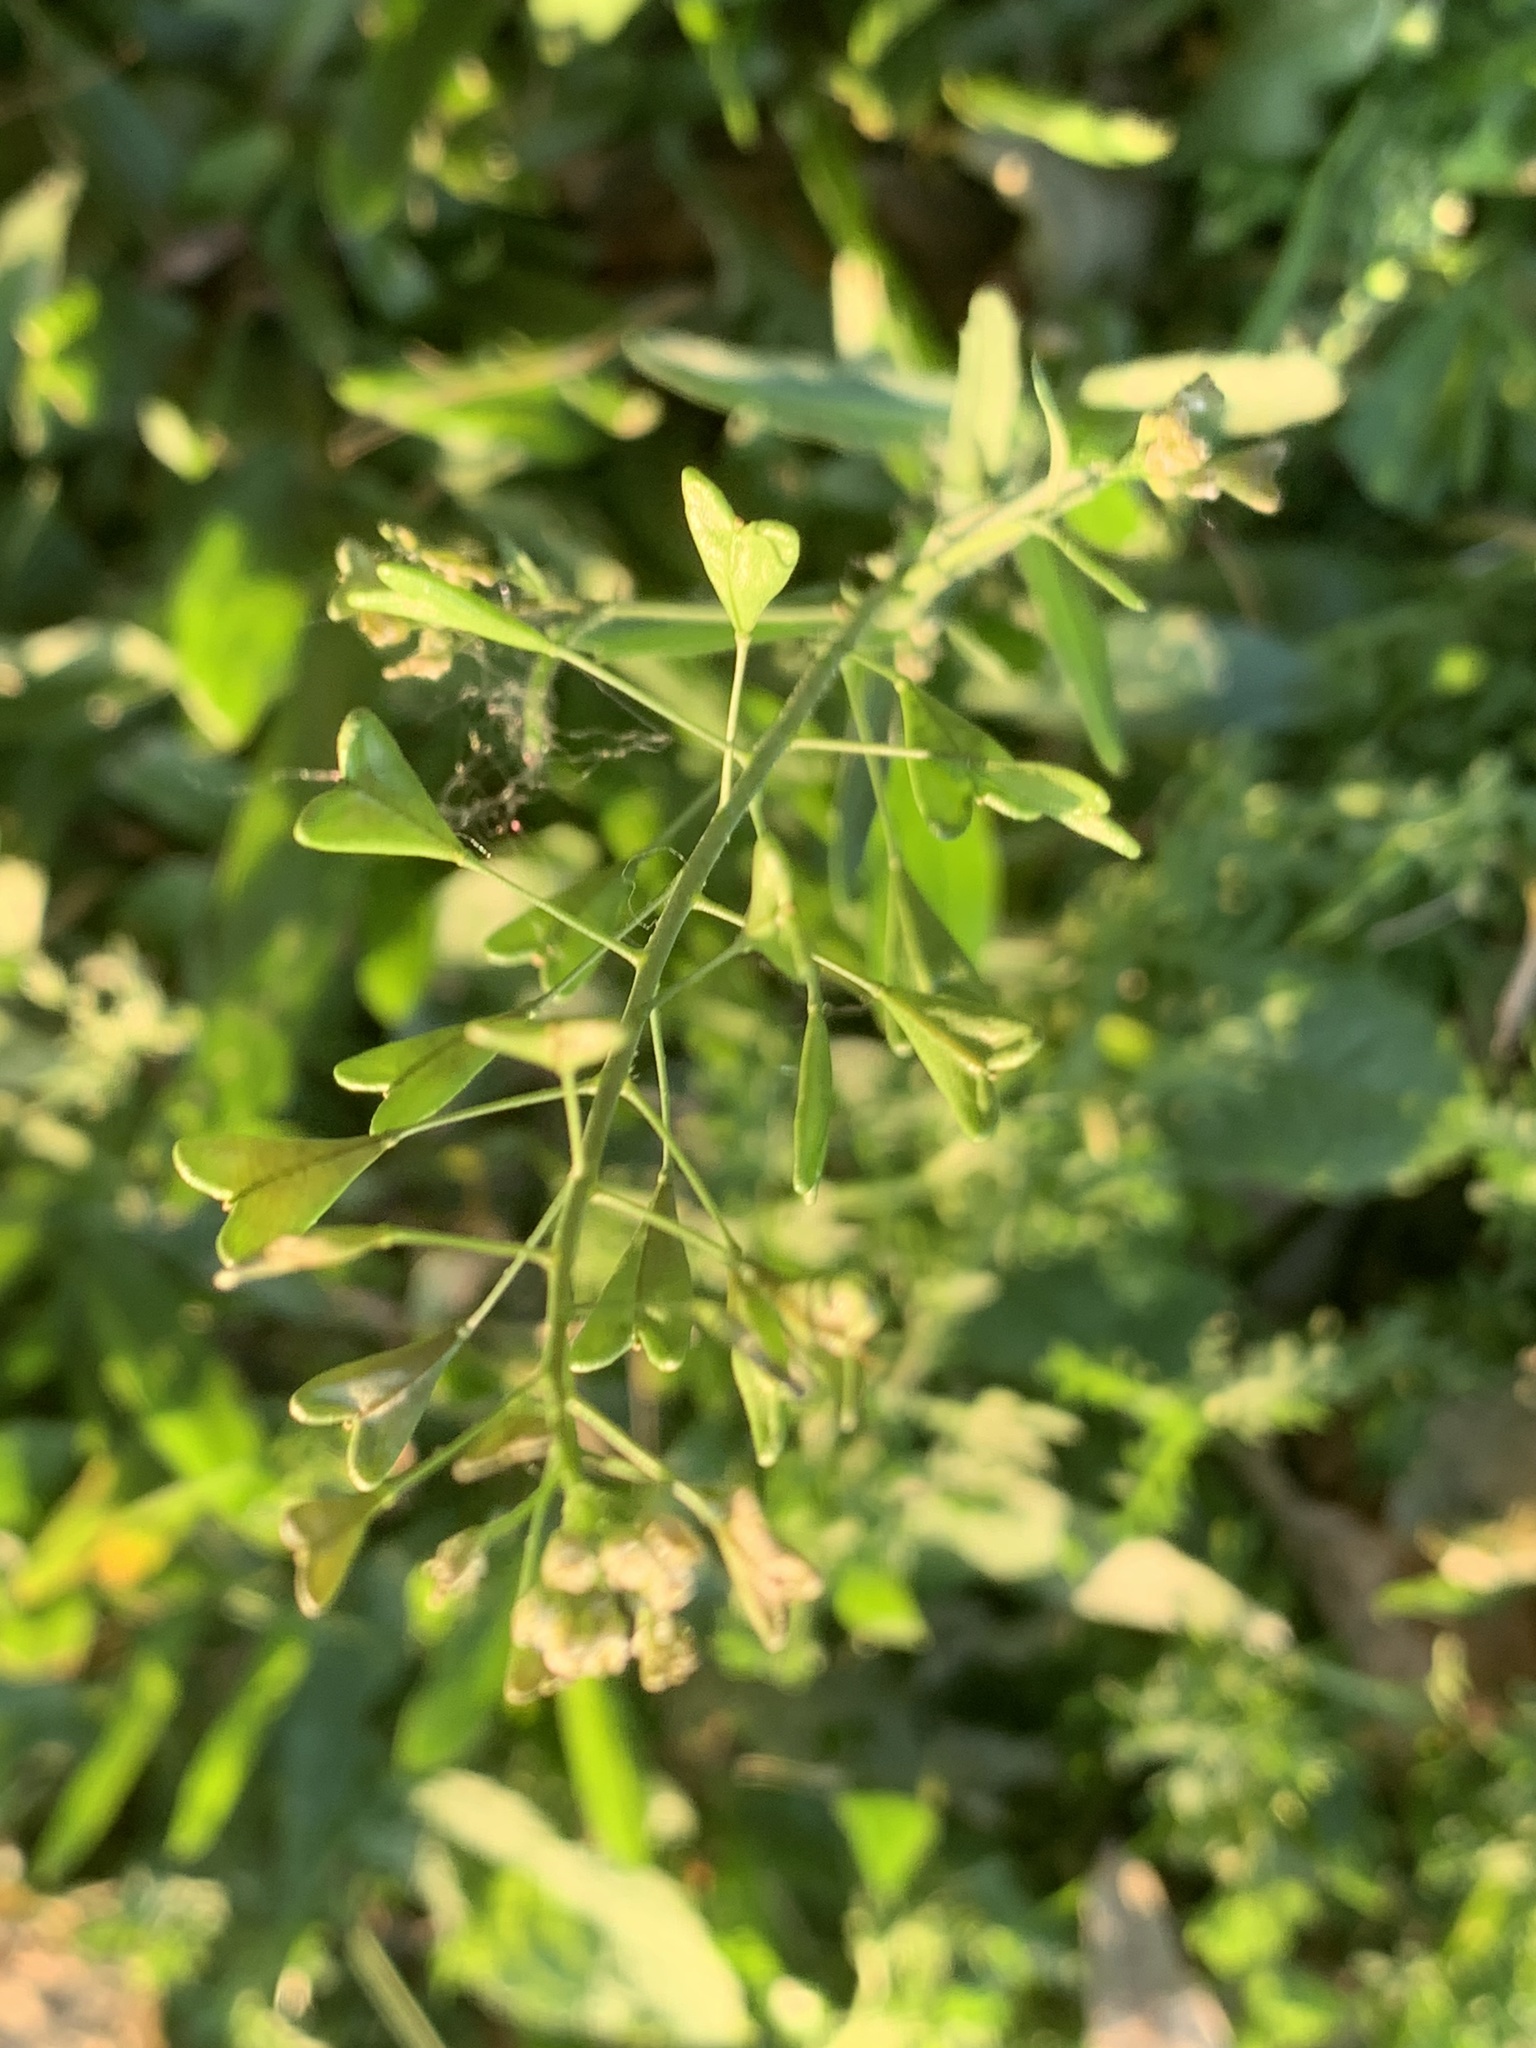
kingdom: Plantae
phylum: Tracheophyta
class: Magnoliopsida
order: Brassicales
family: Brassicaceae
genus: Capsella
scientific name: Capsella bursa-pastoris
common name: Shepherd's purse
